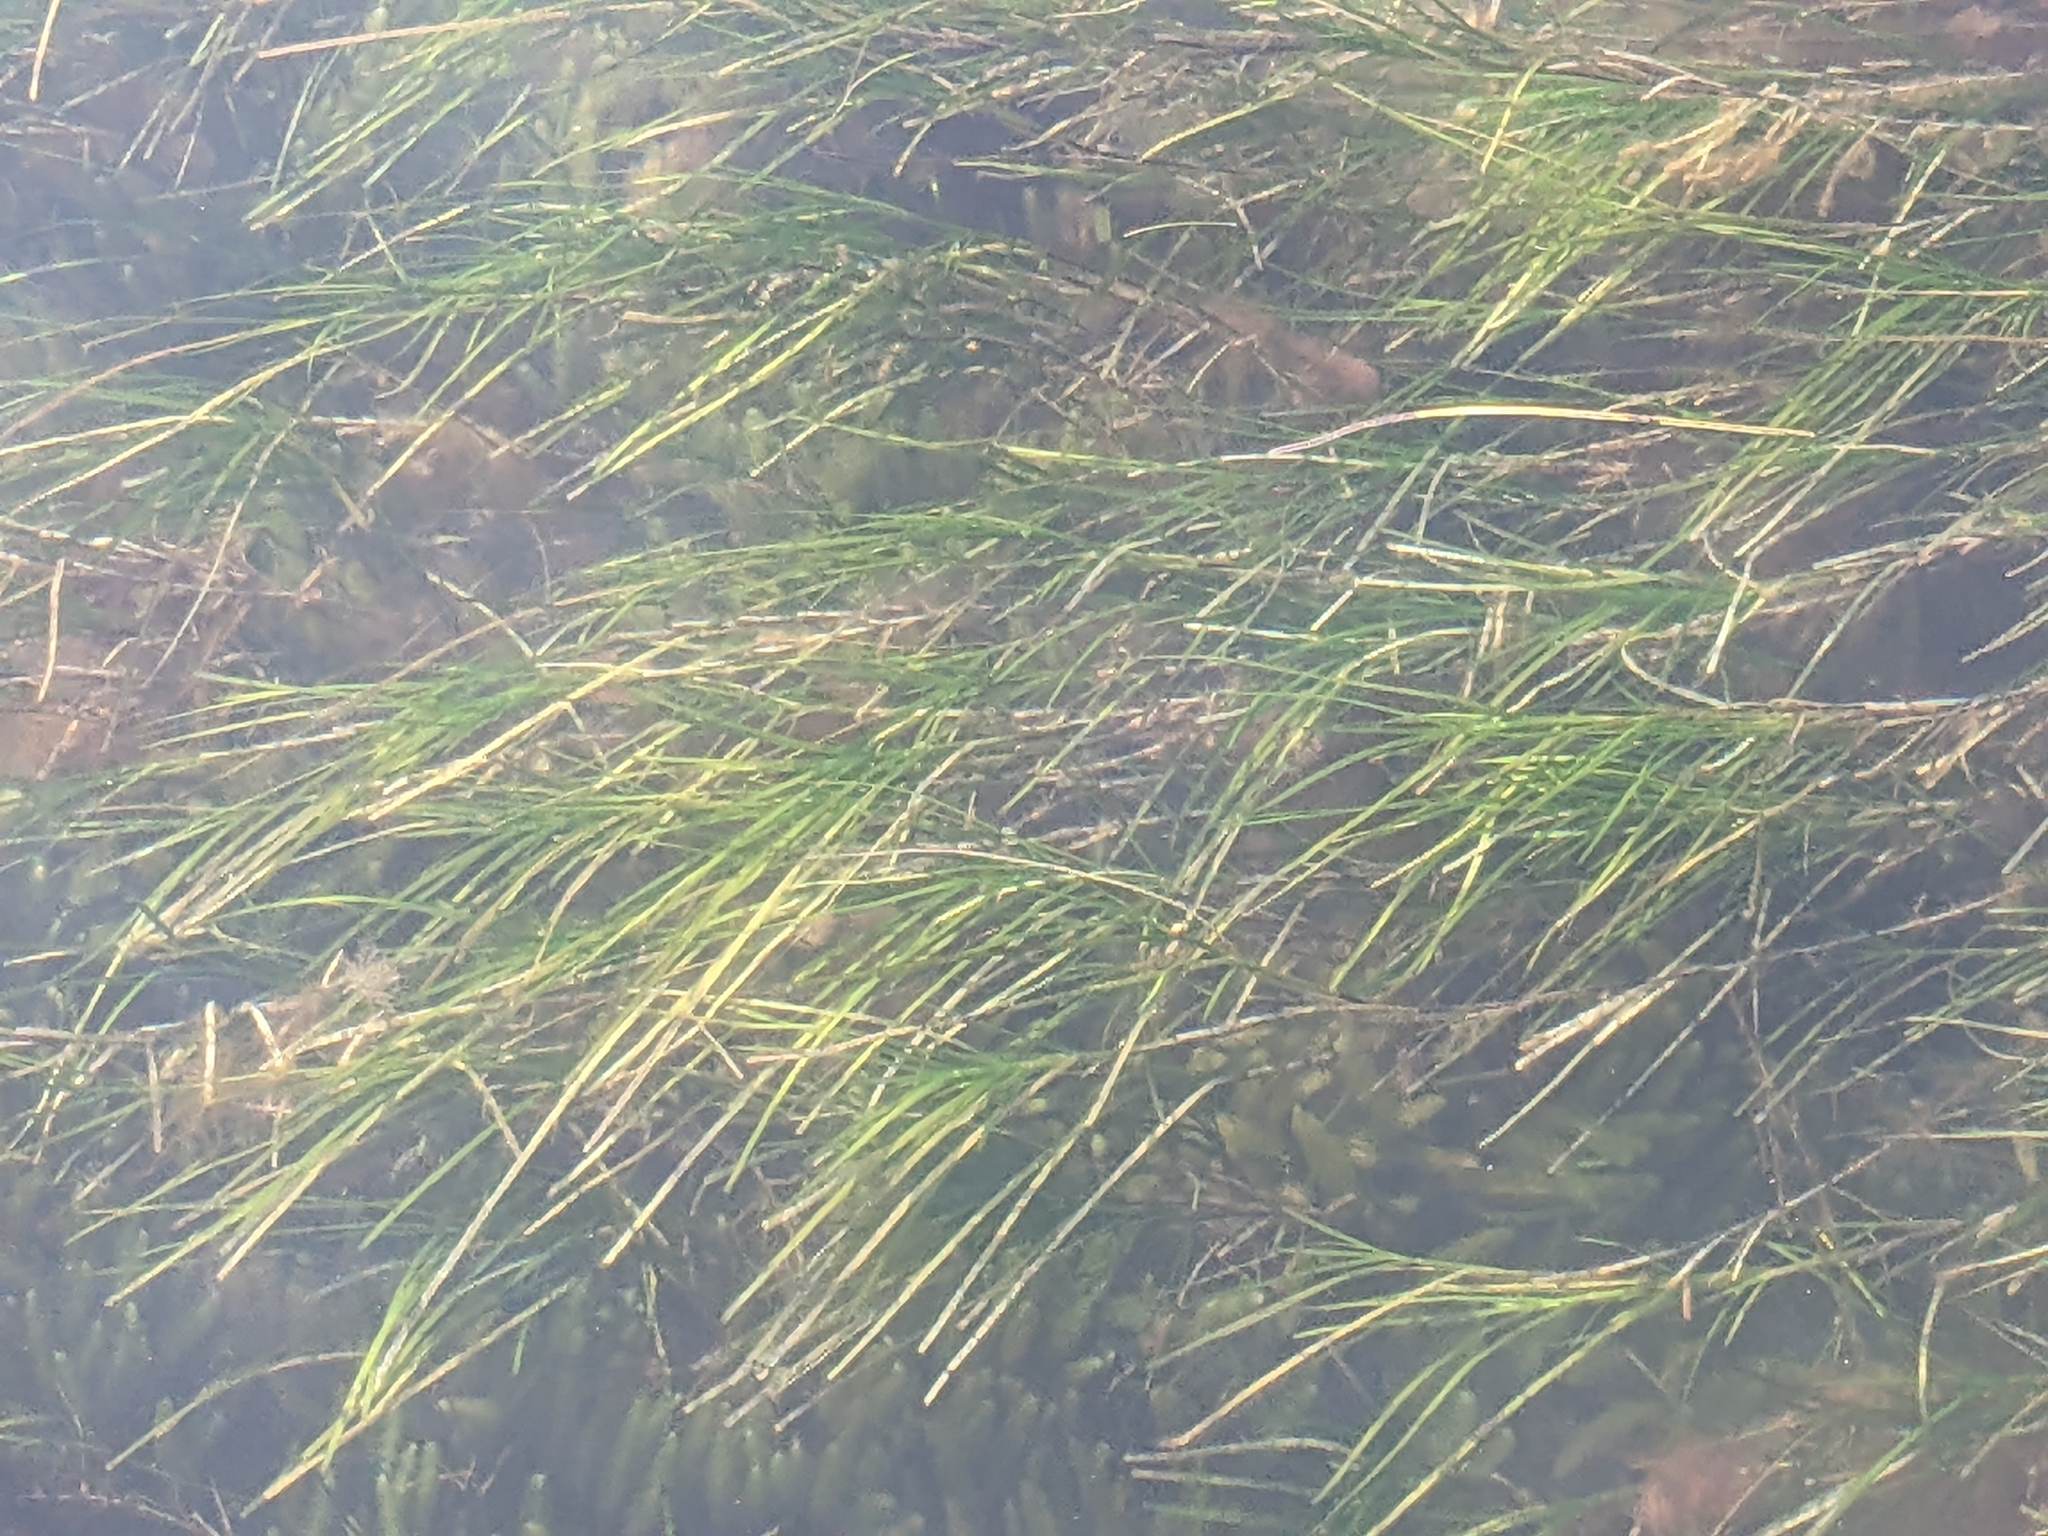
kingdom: Plantae
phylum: Tracheophyta
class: Liliopsida
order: Alismatales
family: Zosteraceae
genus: Zostera
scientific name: Zostera tasmanica
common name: Species code: zt
